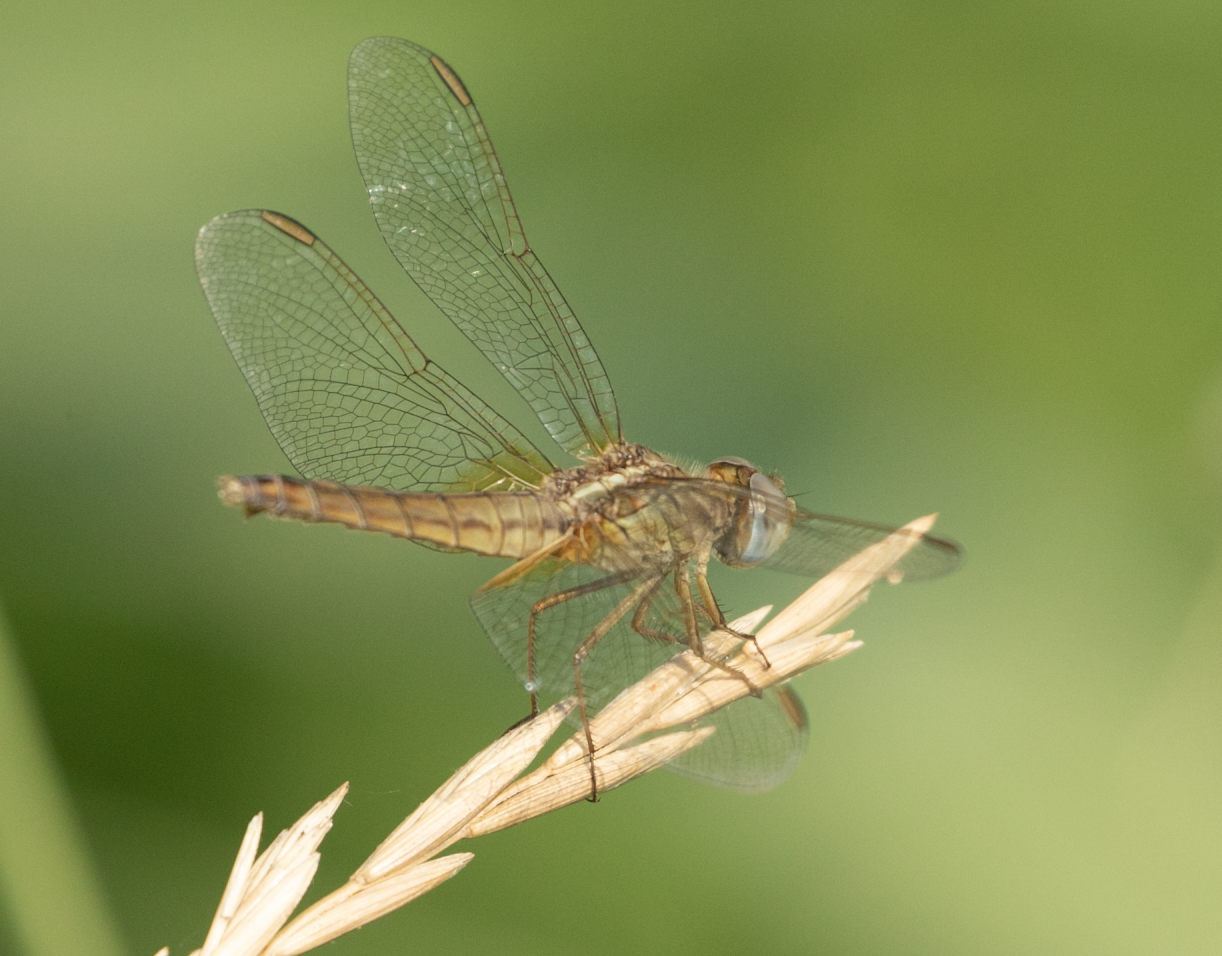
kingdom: Animalia
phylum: Arthropoda
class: Insecta
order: Odonata
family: Libellulidae
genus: Crocothemis
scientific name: Crocothemis erythraea
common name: Scarlet dragonfly
